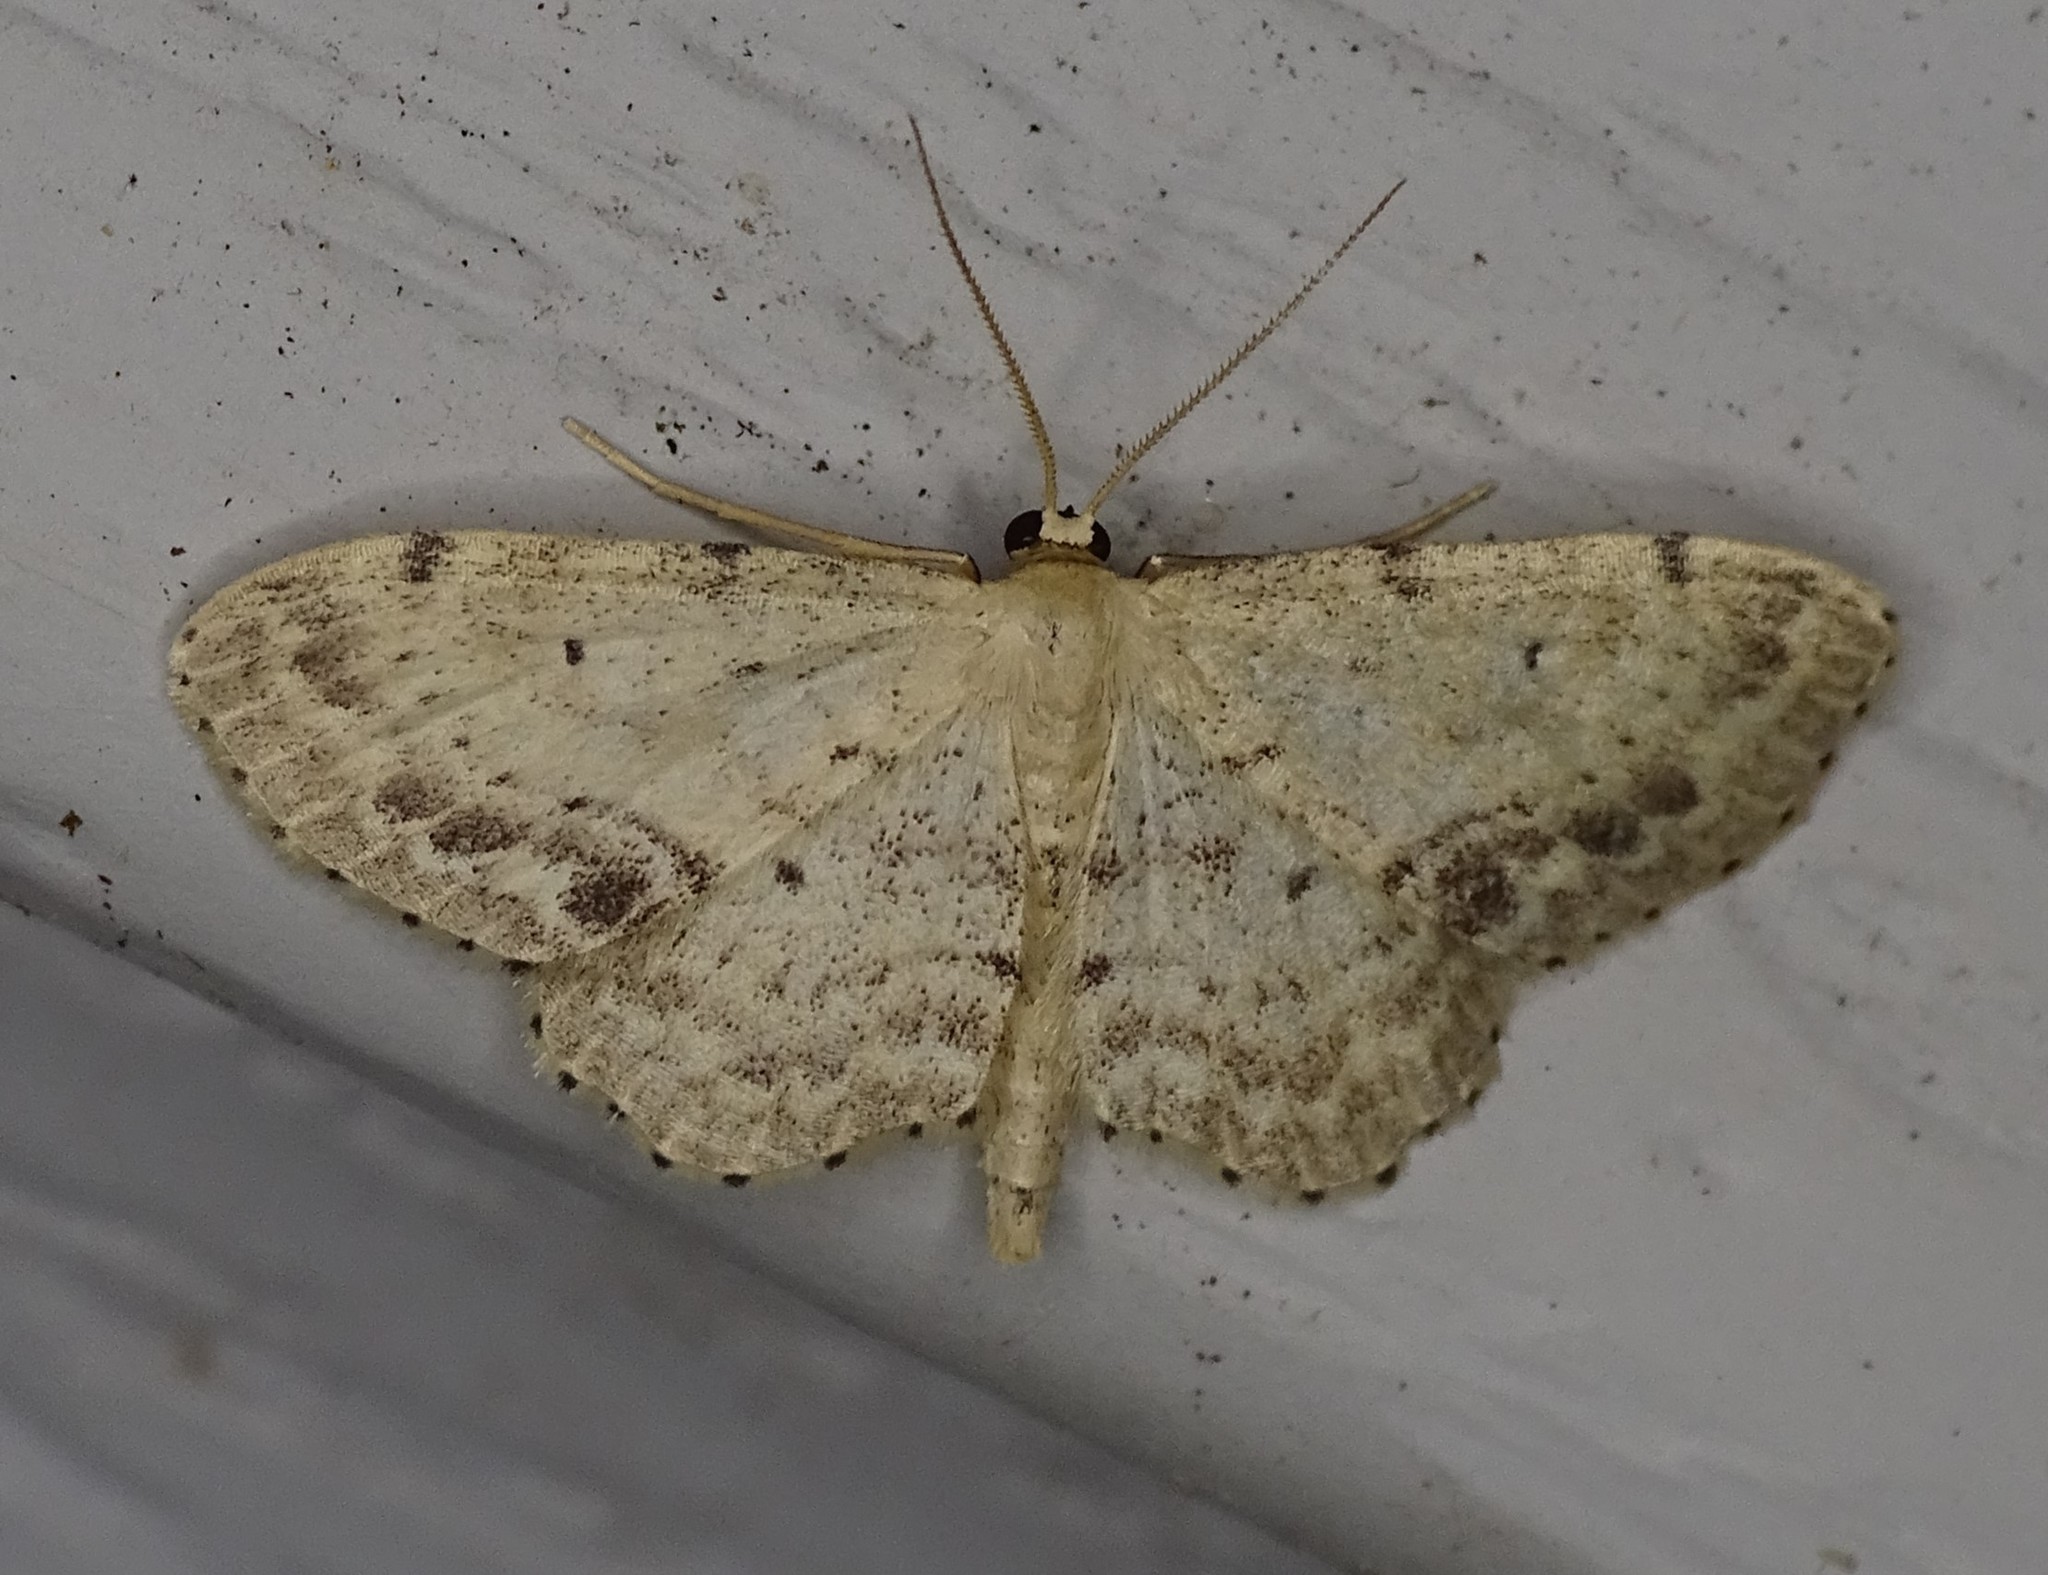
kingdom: Animalia
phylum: Arthropoda
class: Insecta
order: Lepidoptera
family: Geometridae
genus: Idaea
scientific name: Idaea dimidiata
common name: Single-dotted wave
